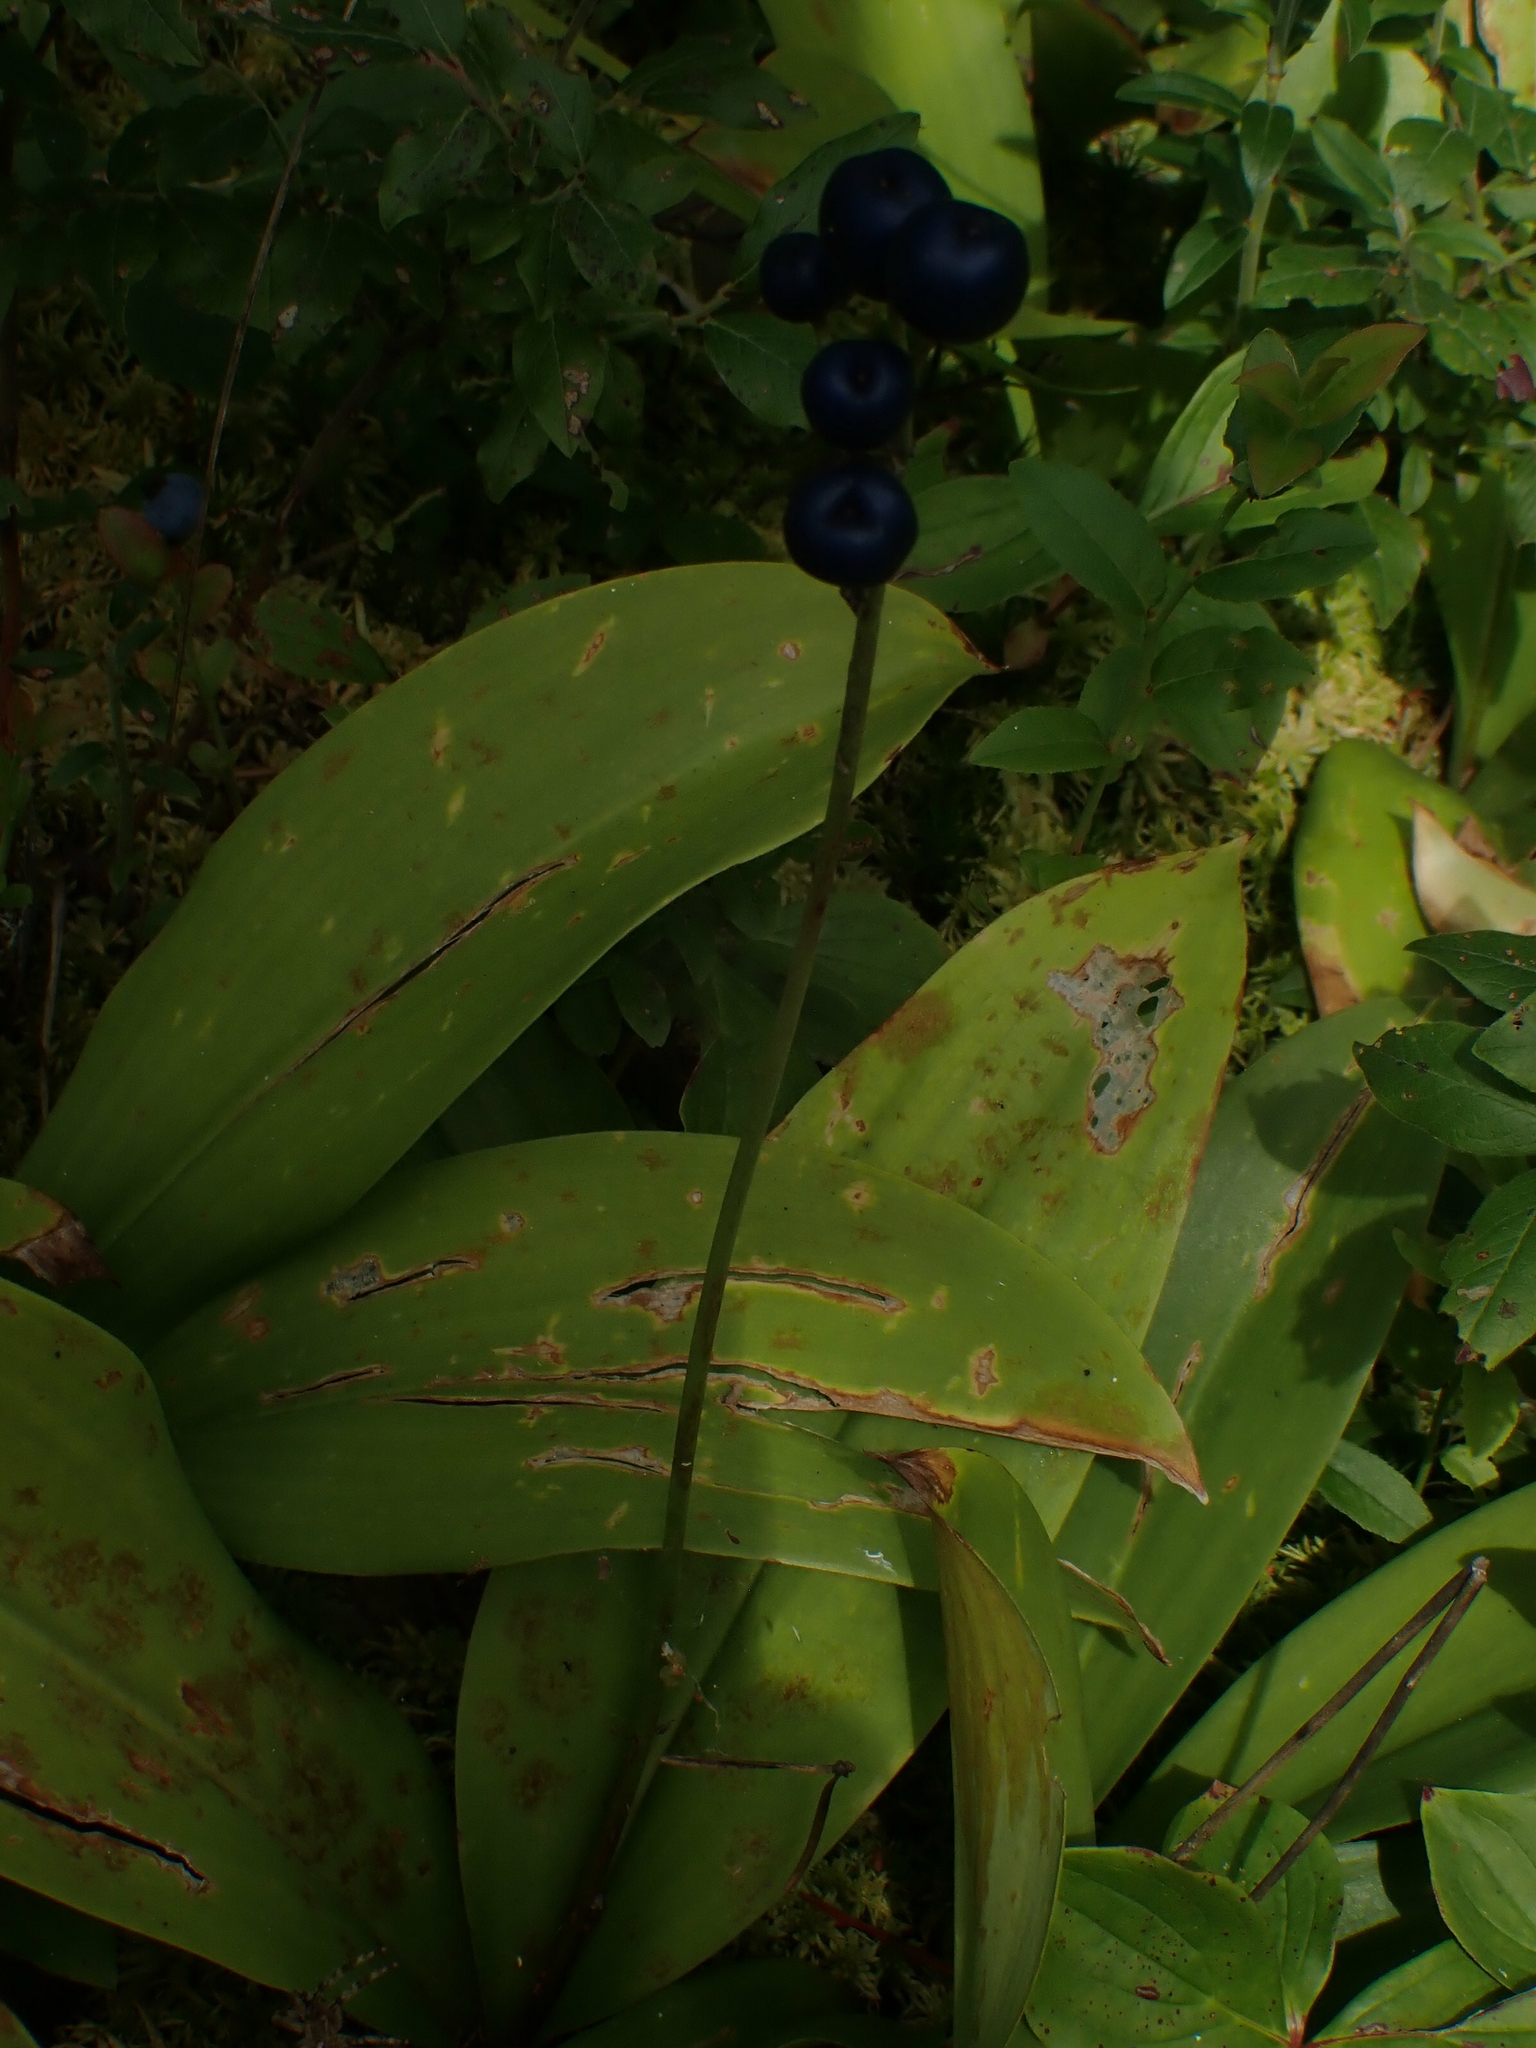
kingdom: Plantae
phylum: Tracheophyta
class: Liliopsida
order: Liliales
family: Liliaceae
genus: Clintonia
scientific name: Clintonia borealis
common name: Yellow clintonia
